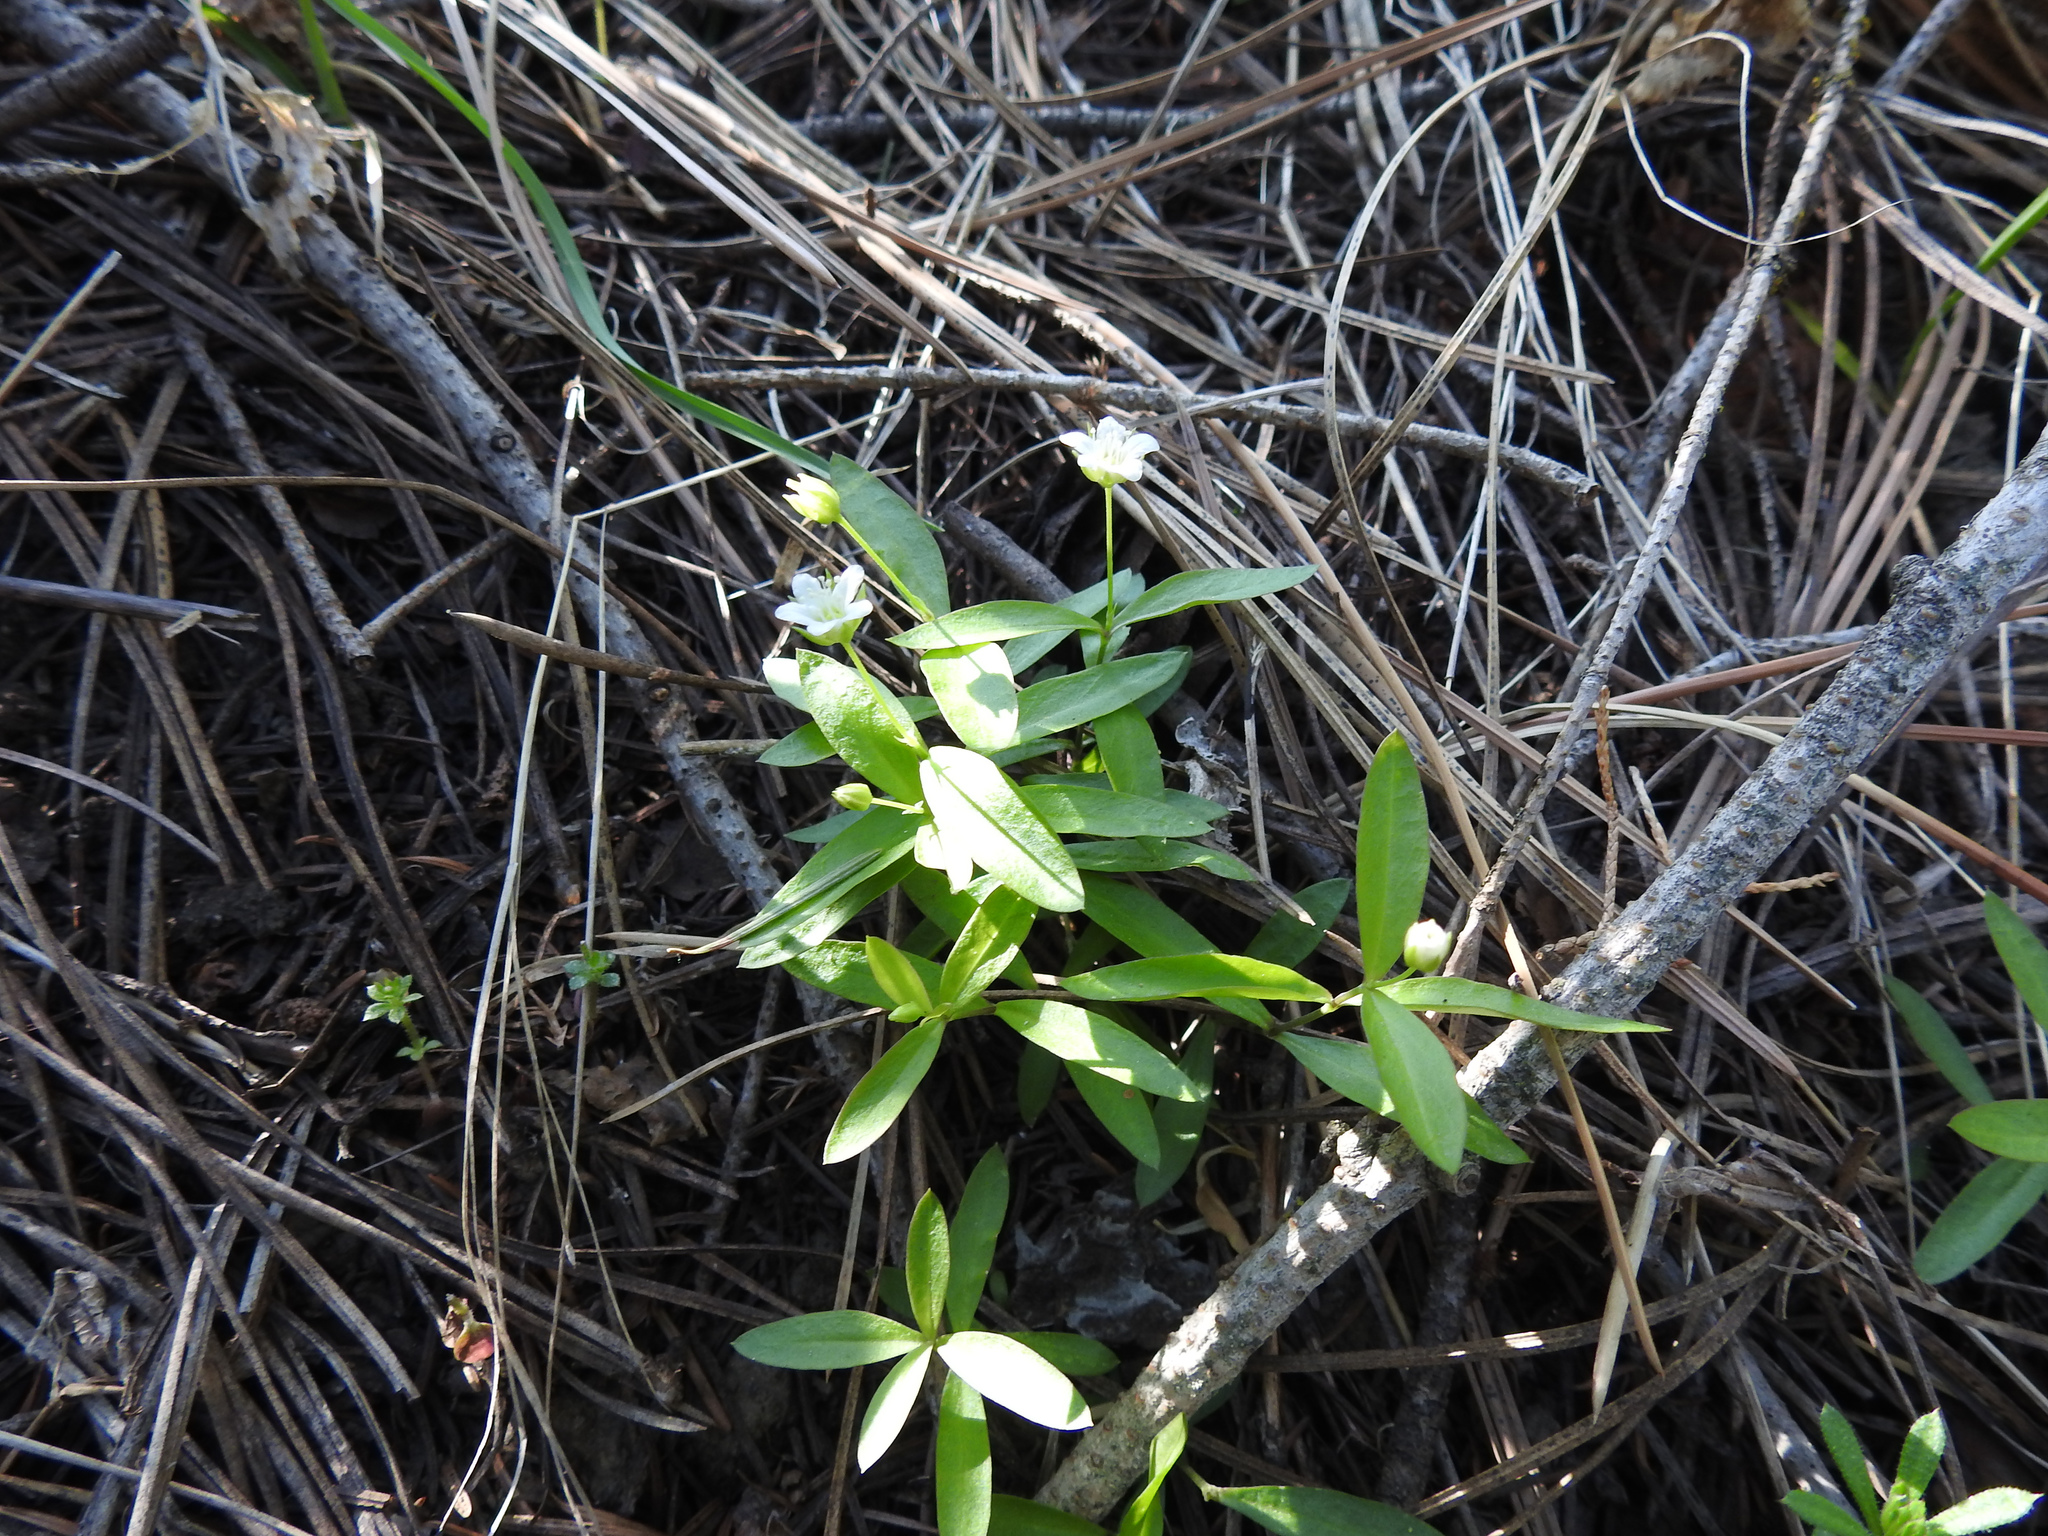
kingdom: Plantae
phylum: Tracheophyta
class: Magnoliopsida
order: Caryophyllales
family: Caryophyllaceae
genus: Moehringia
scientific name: Moehringia macrophylla
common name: Big-leaf sandwort
